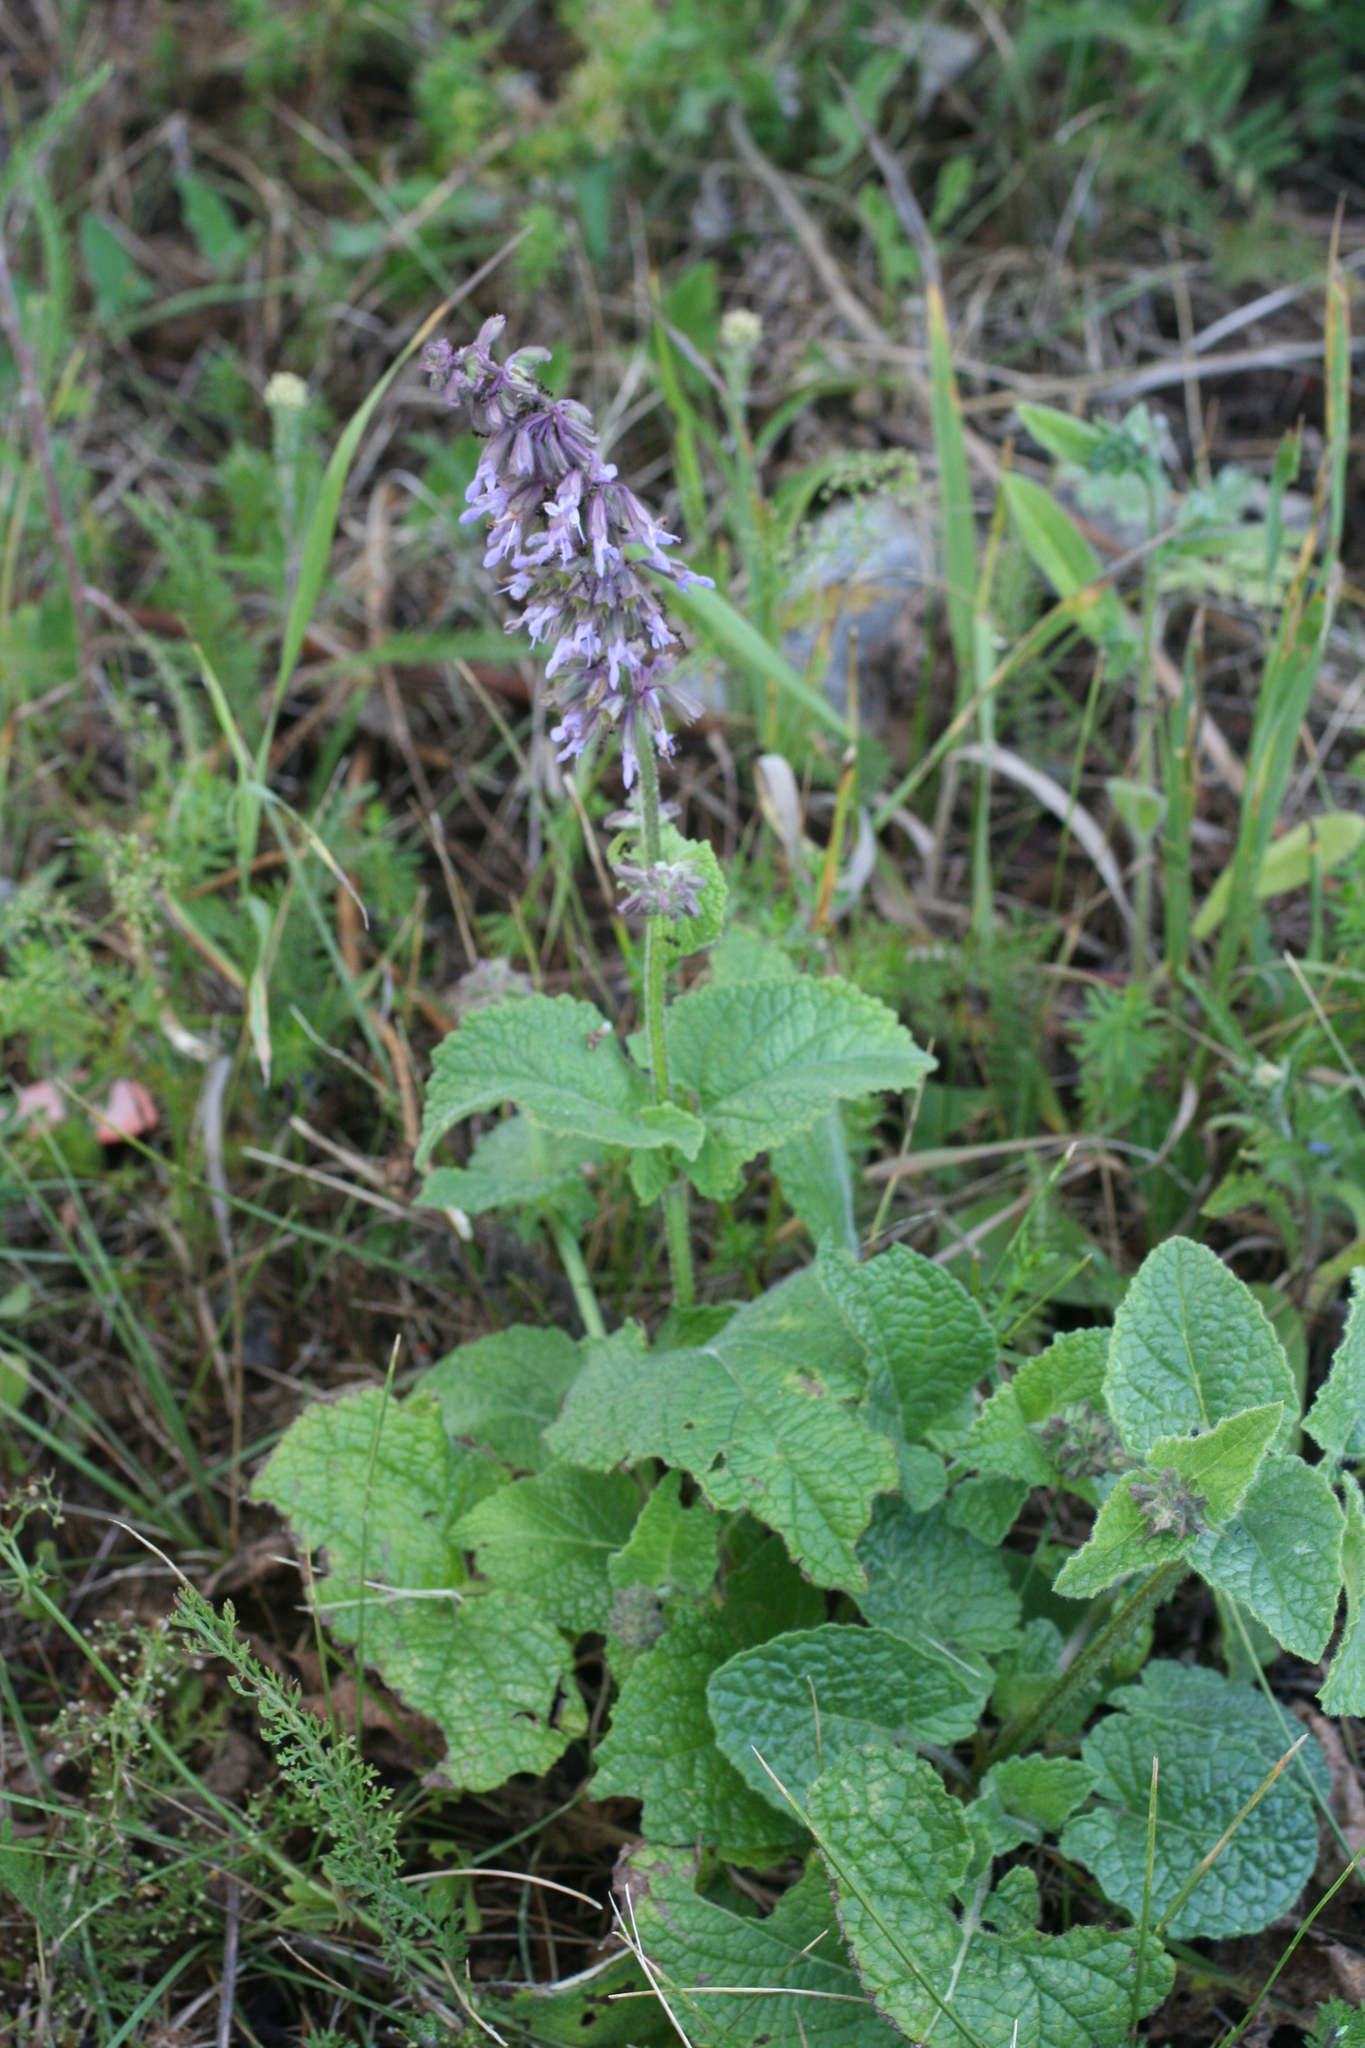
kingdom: Plantae
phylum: Tracheophyta
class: Magnoliopsida
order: Lamiales
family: Lamiaceae
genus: Salvia
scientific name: Salvia verticillata
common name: Whorled clary
